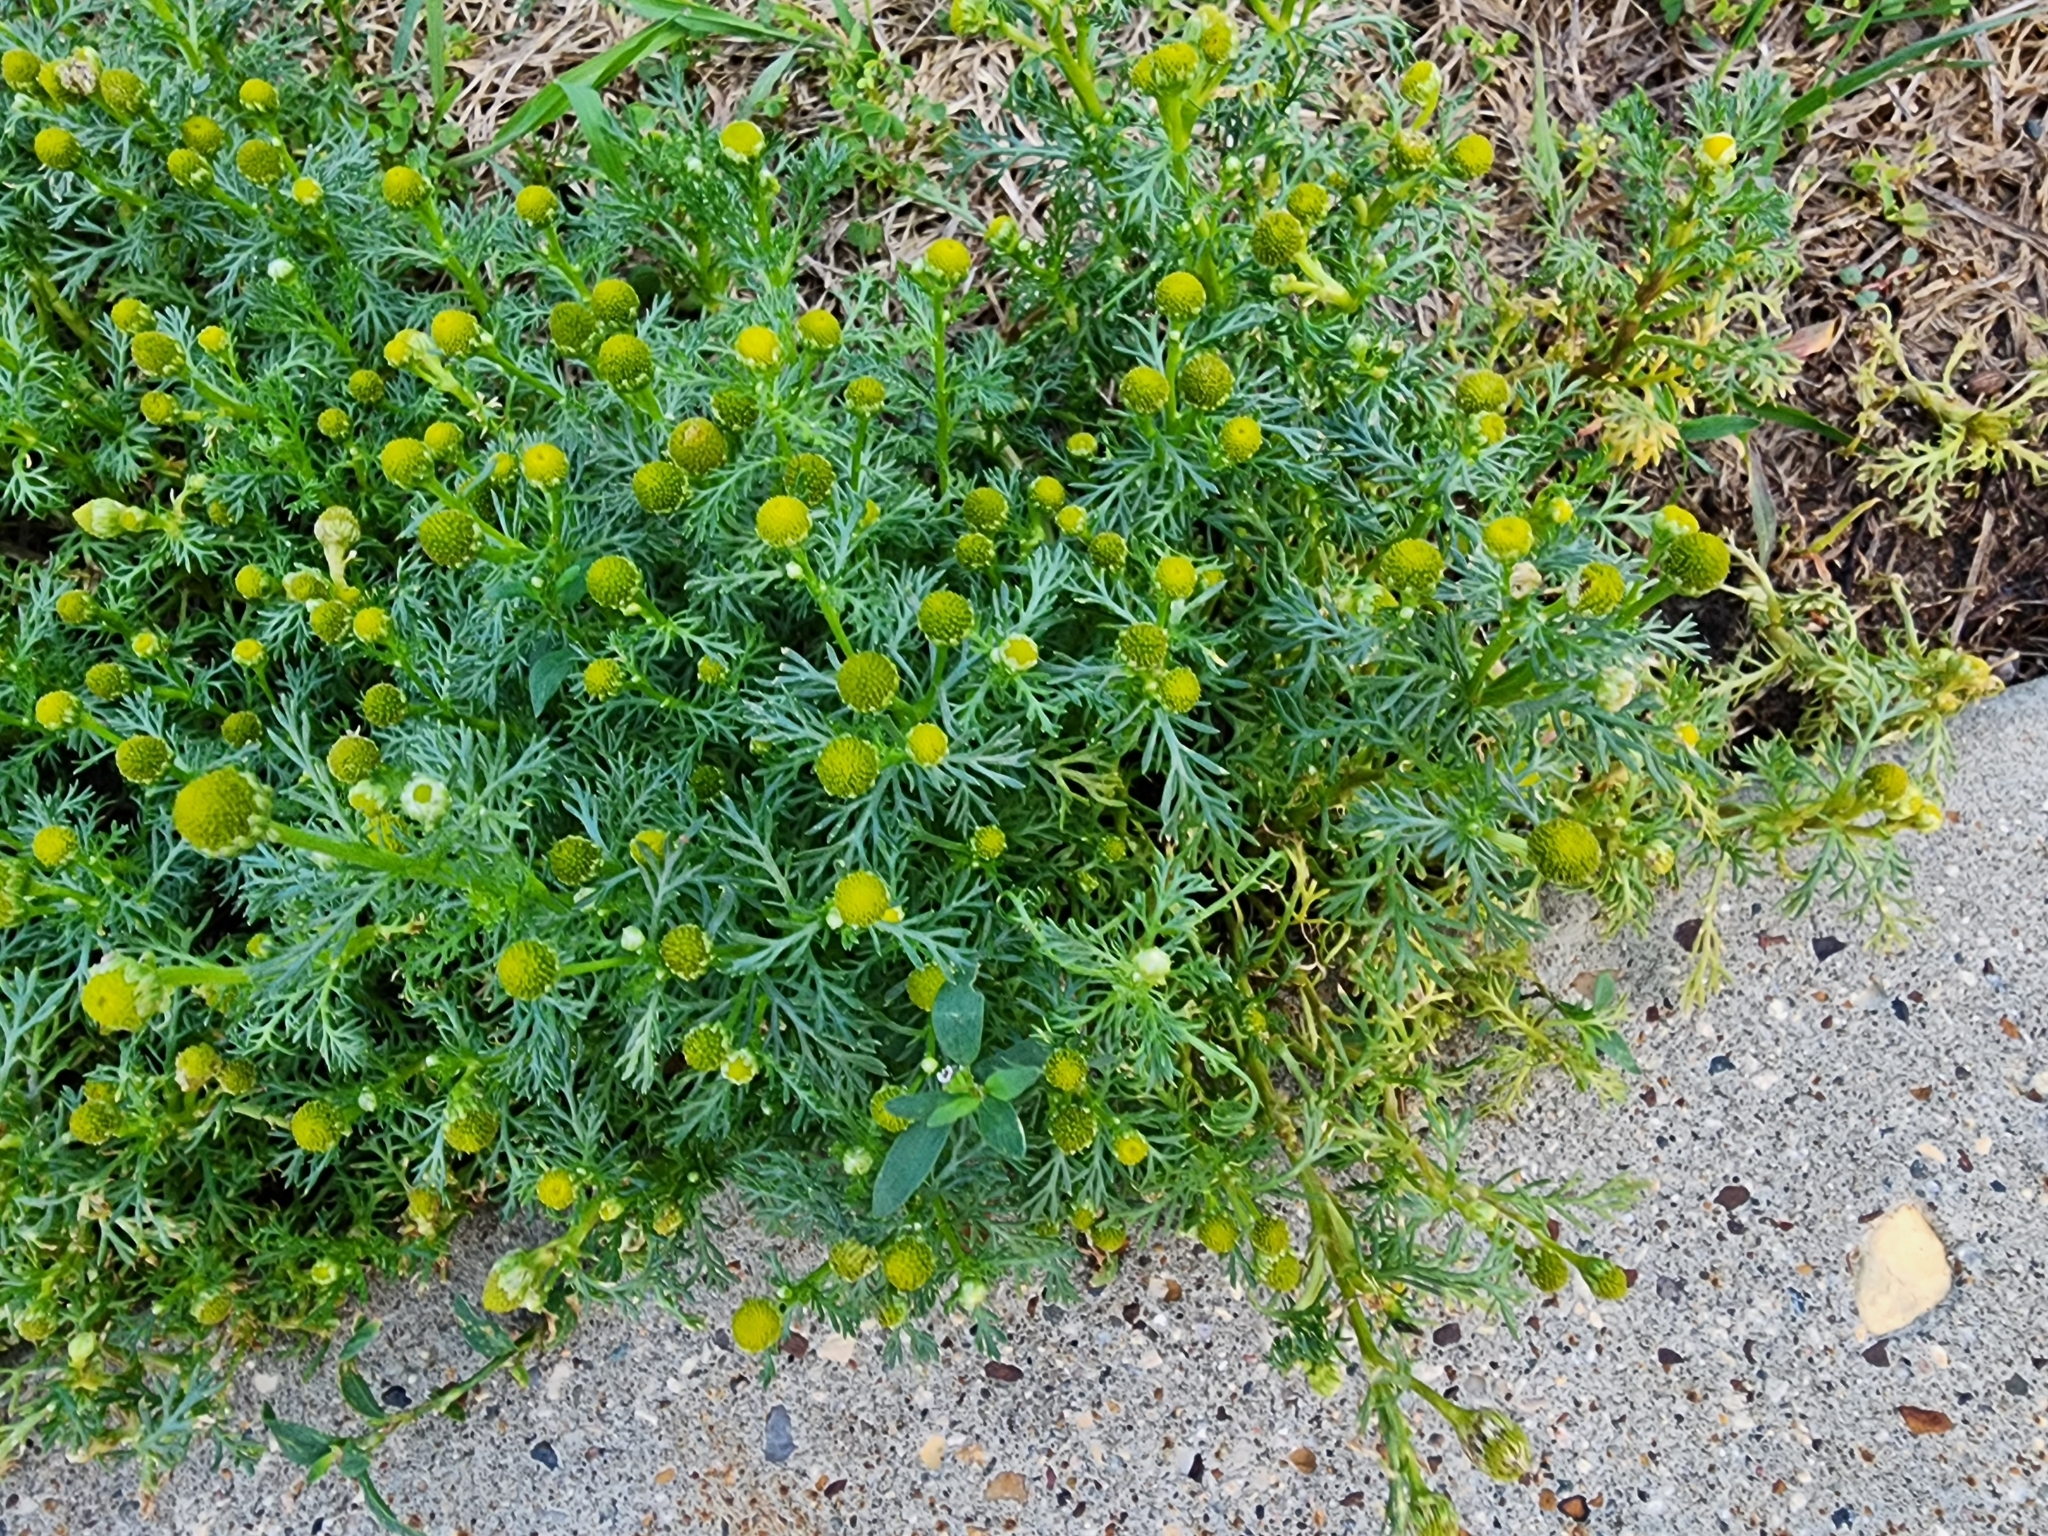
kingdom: Plantae
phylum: Tracheophyta
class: Magnoliopsida
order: Asterales
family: Asteraceae
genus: Matricaria
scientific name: Matricaria discoidea
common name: Disc mayweed
